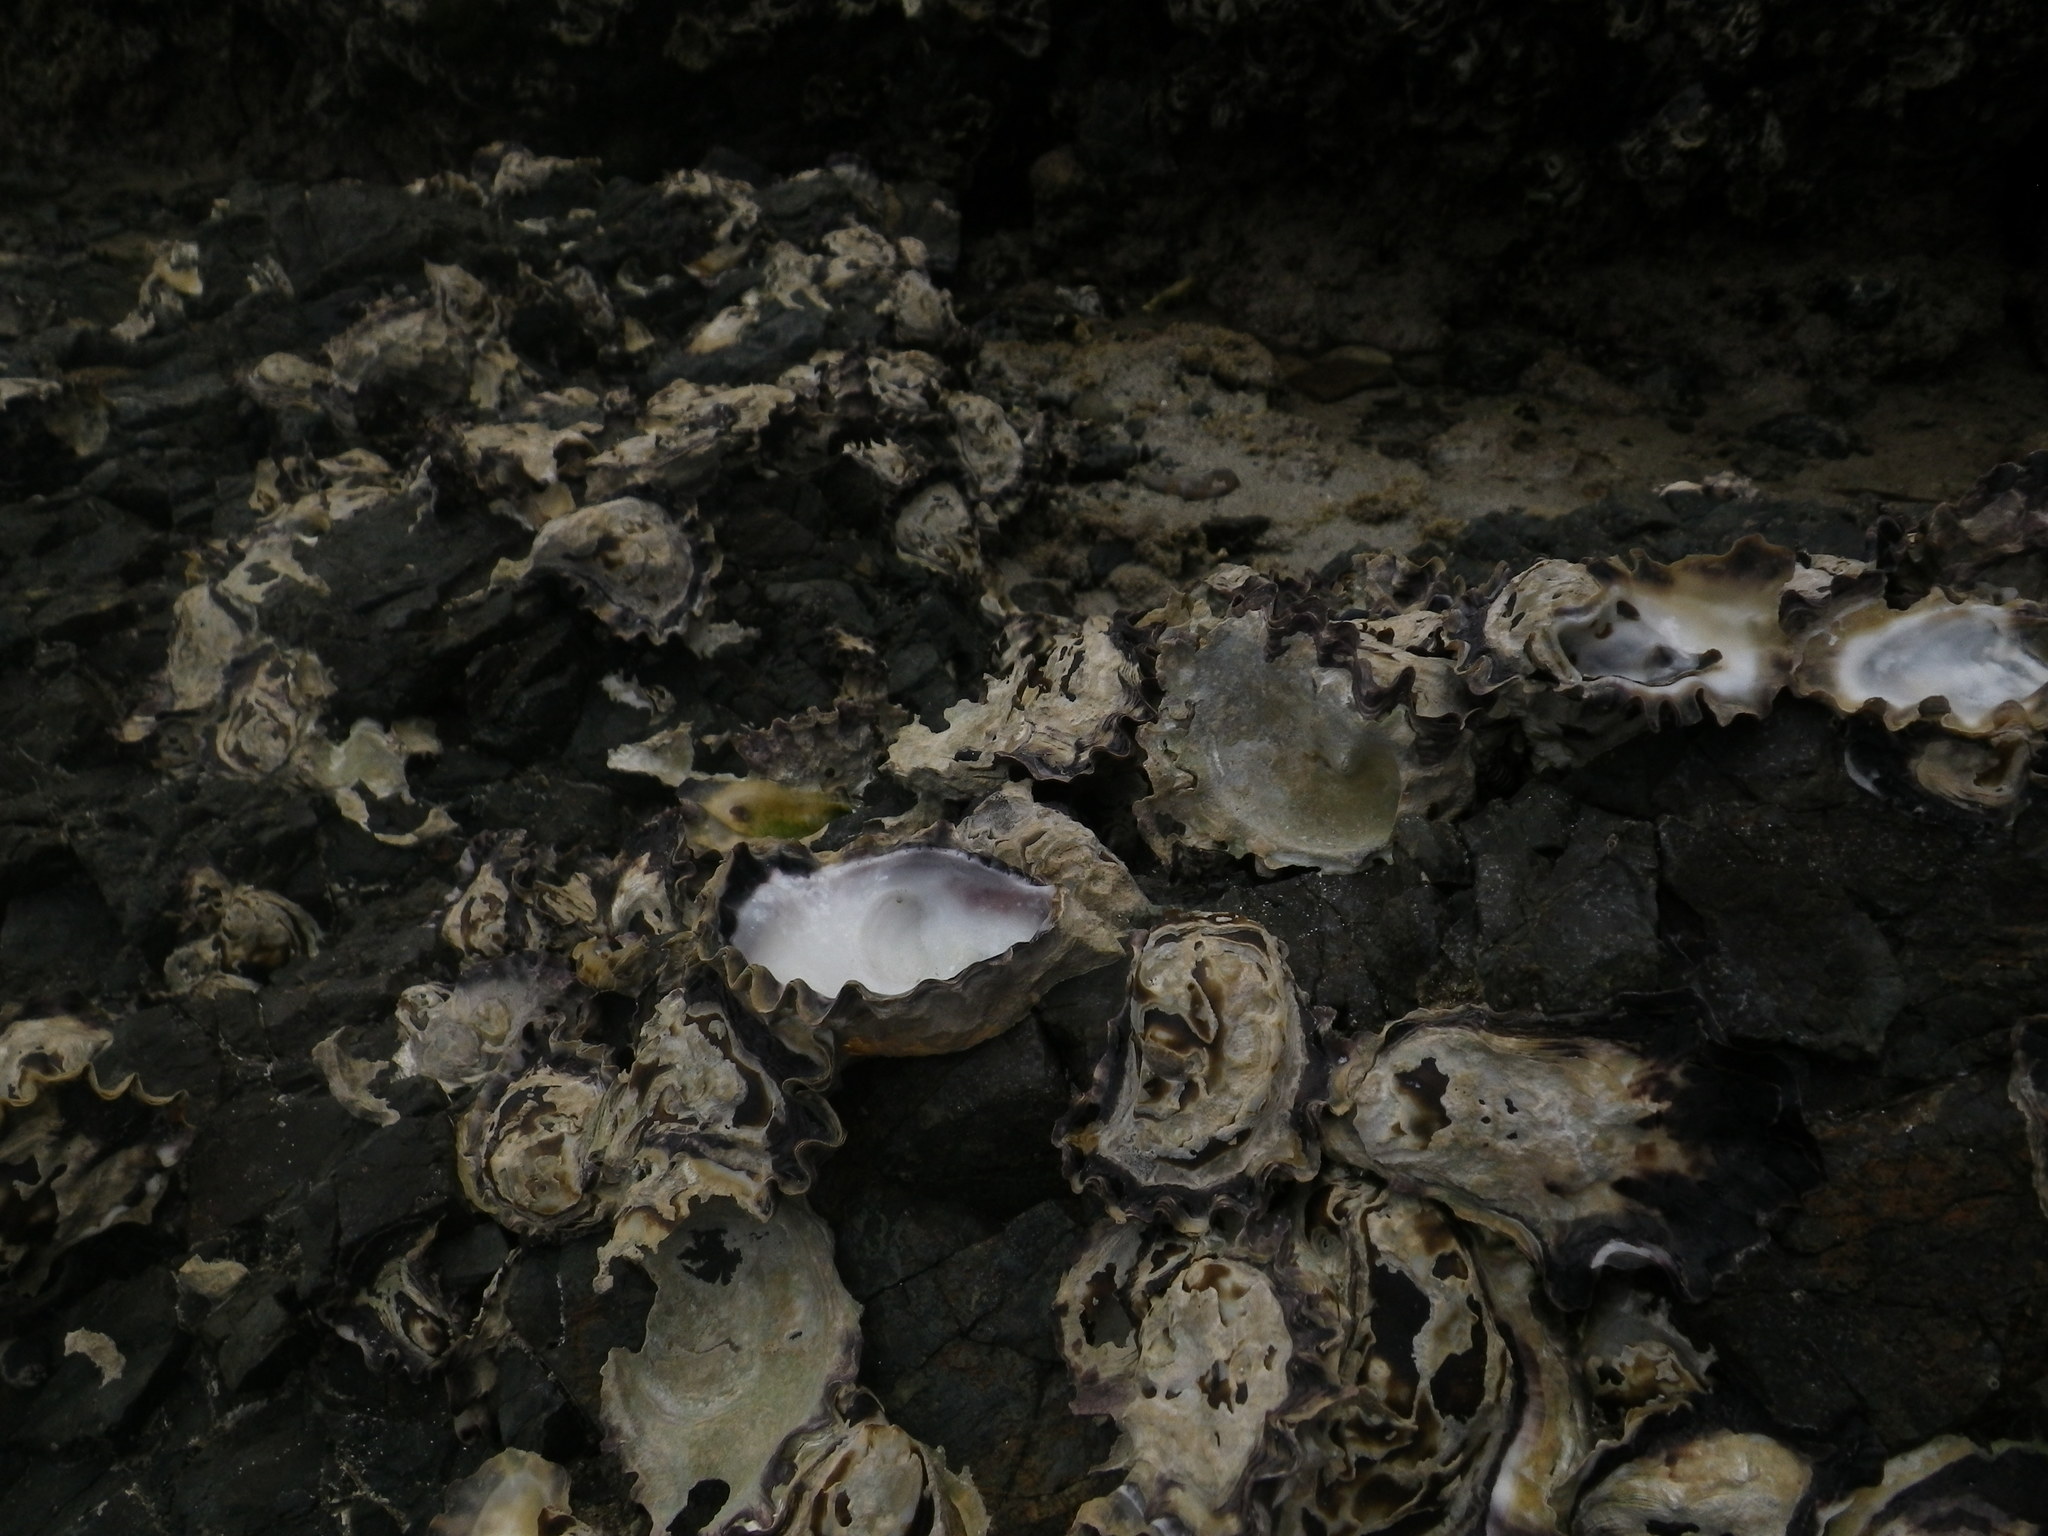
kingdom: Animalia
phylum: Mollusca
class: Bivalvia
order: Ostreida
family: Ostreidae
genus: Saccostrea
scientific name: Saccostrea glomerata
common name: Sydney cupped oyster
